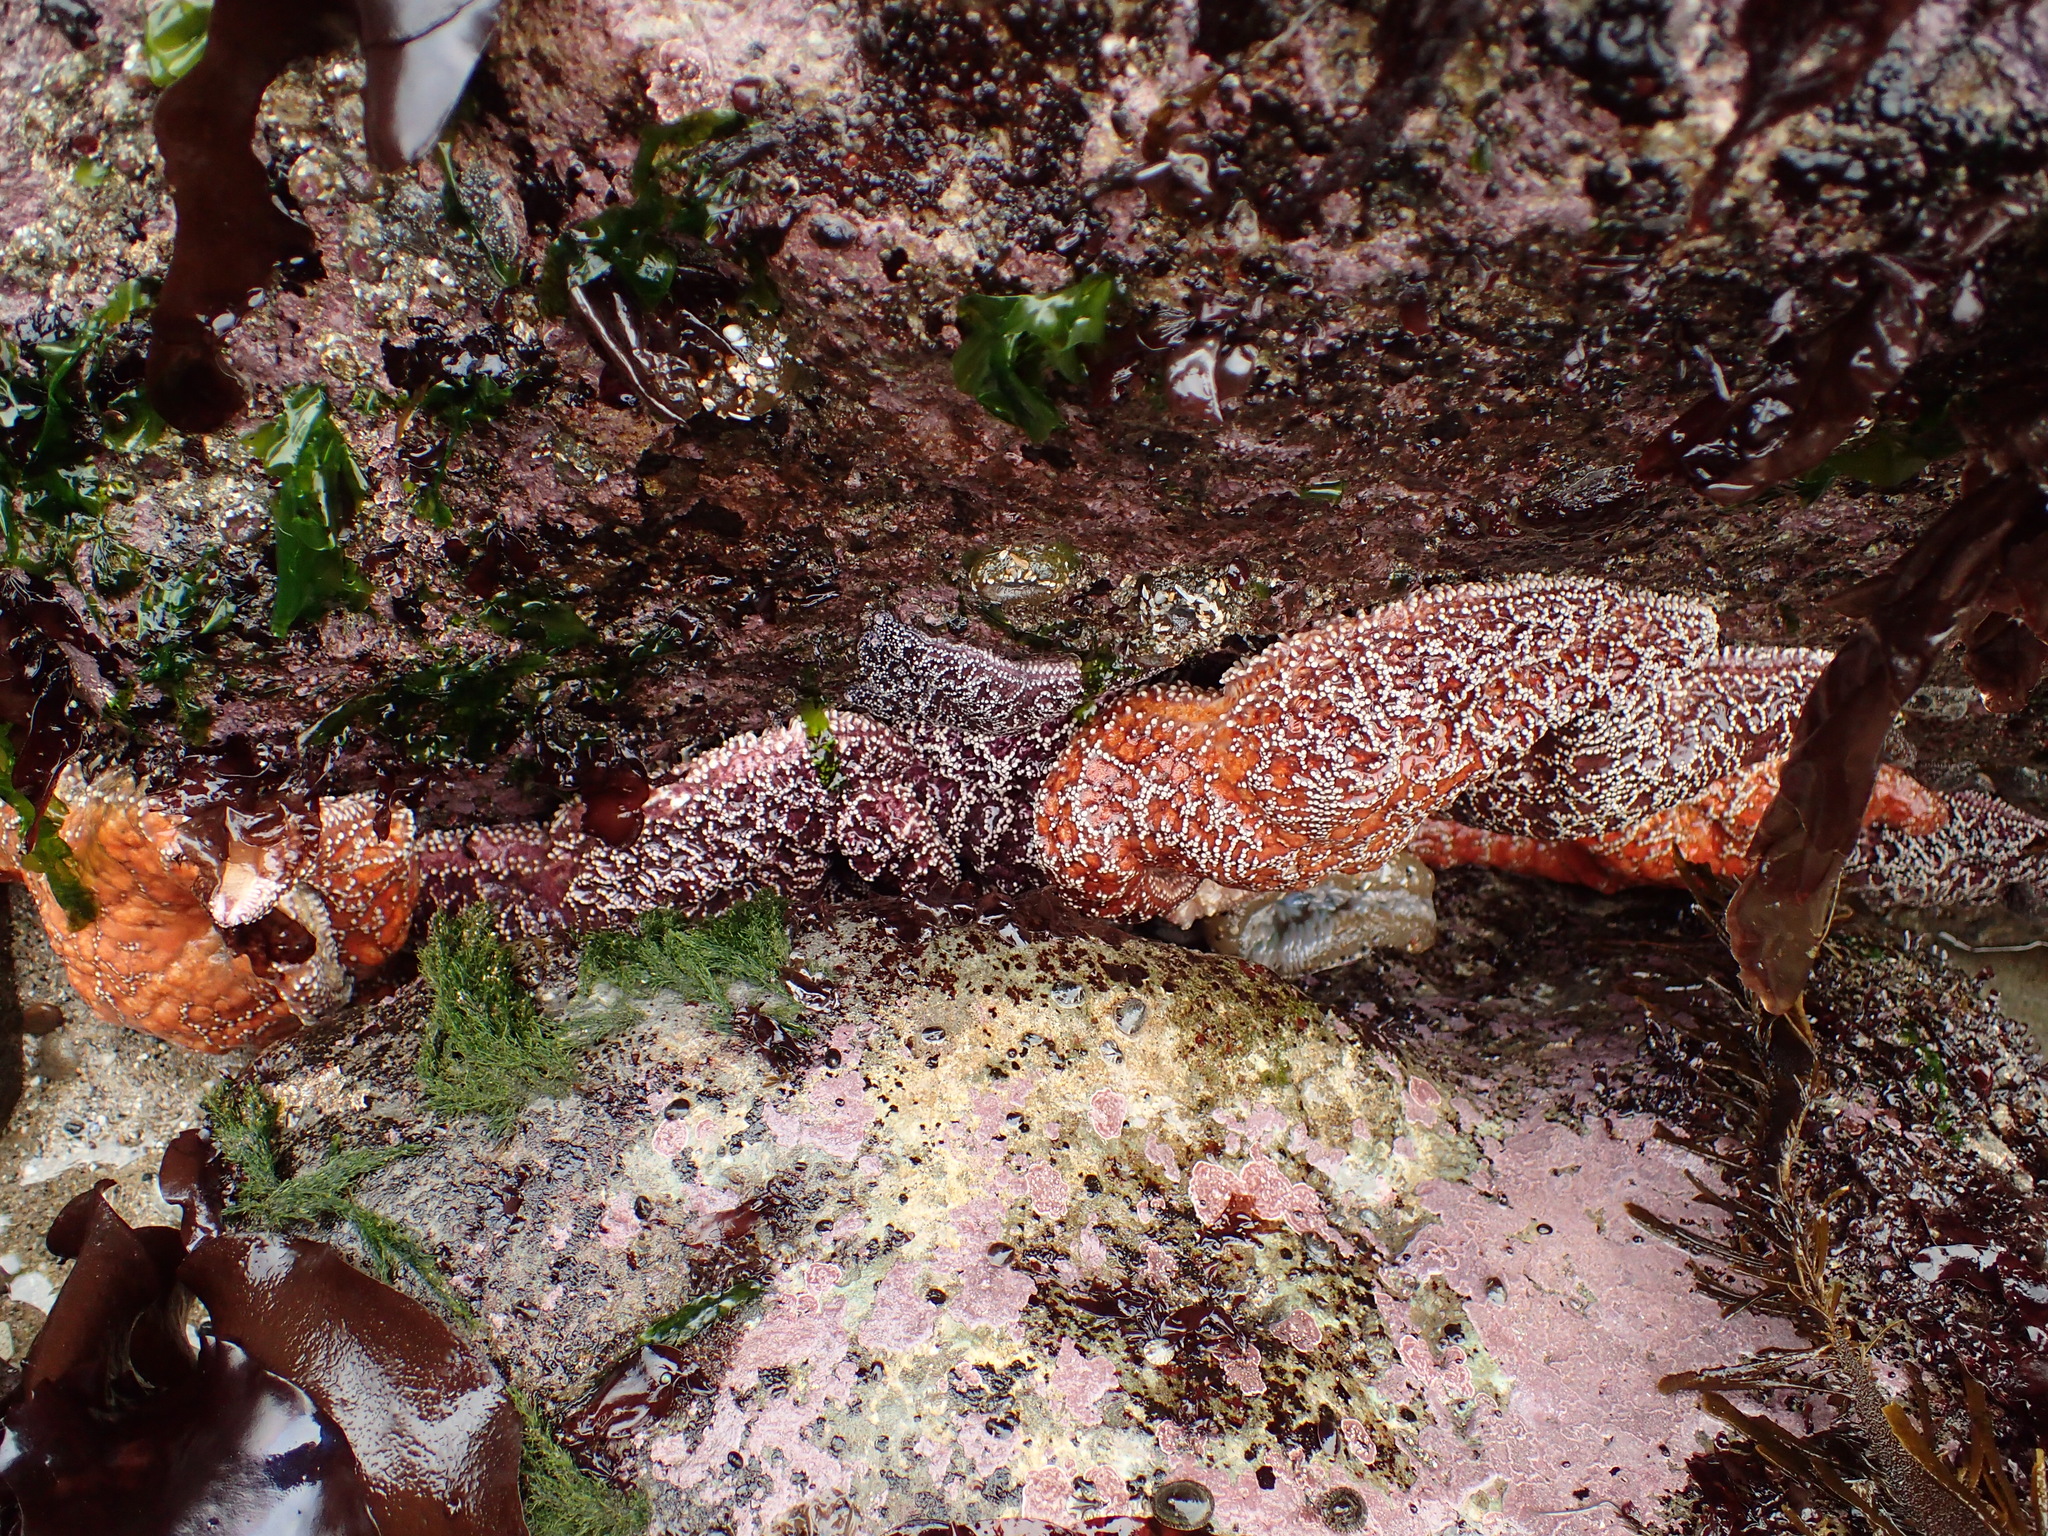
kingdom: Animalia
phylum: Echinodermata
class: Asteroidea
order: Forcipulatida
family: Asteriidae
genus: Pisaster
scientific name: Pisaster ochraceus
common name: Ochre stars
